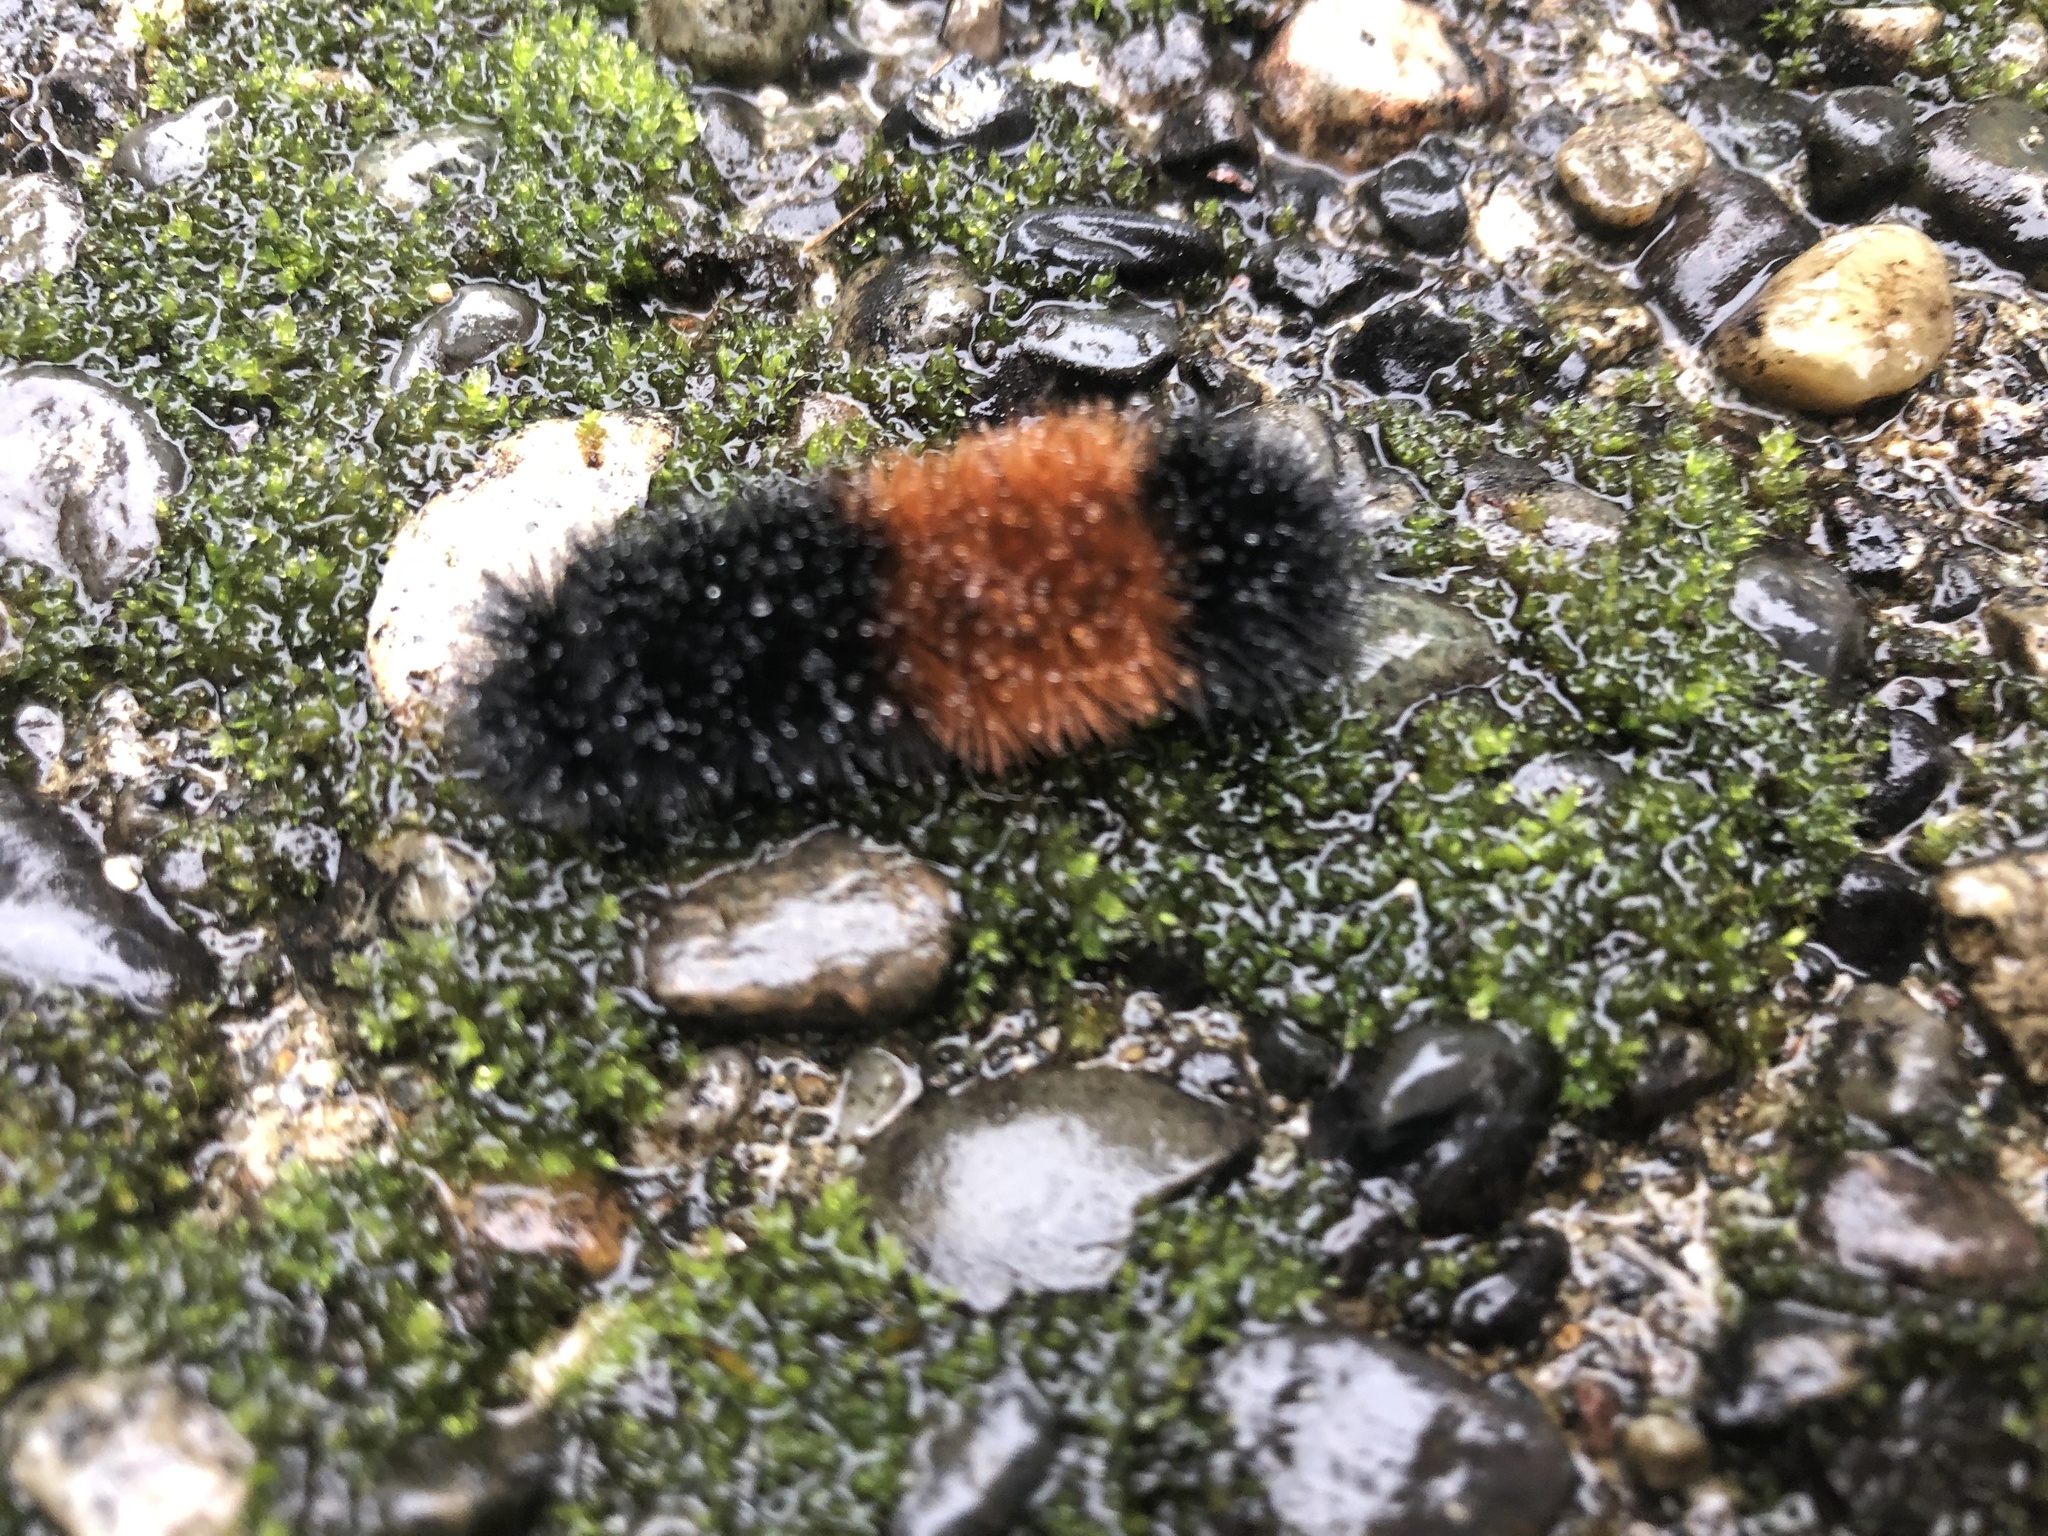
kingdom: Animalia
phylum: Arthropoda
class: Insecta
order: Lepidoptera
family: Erebidae
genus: Pyrrharctia
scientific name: Pyrrharctia isabella
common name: Isabella tiger moth
